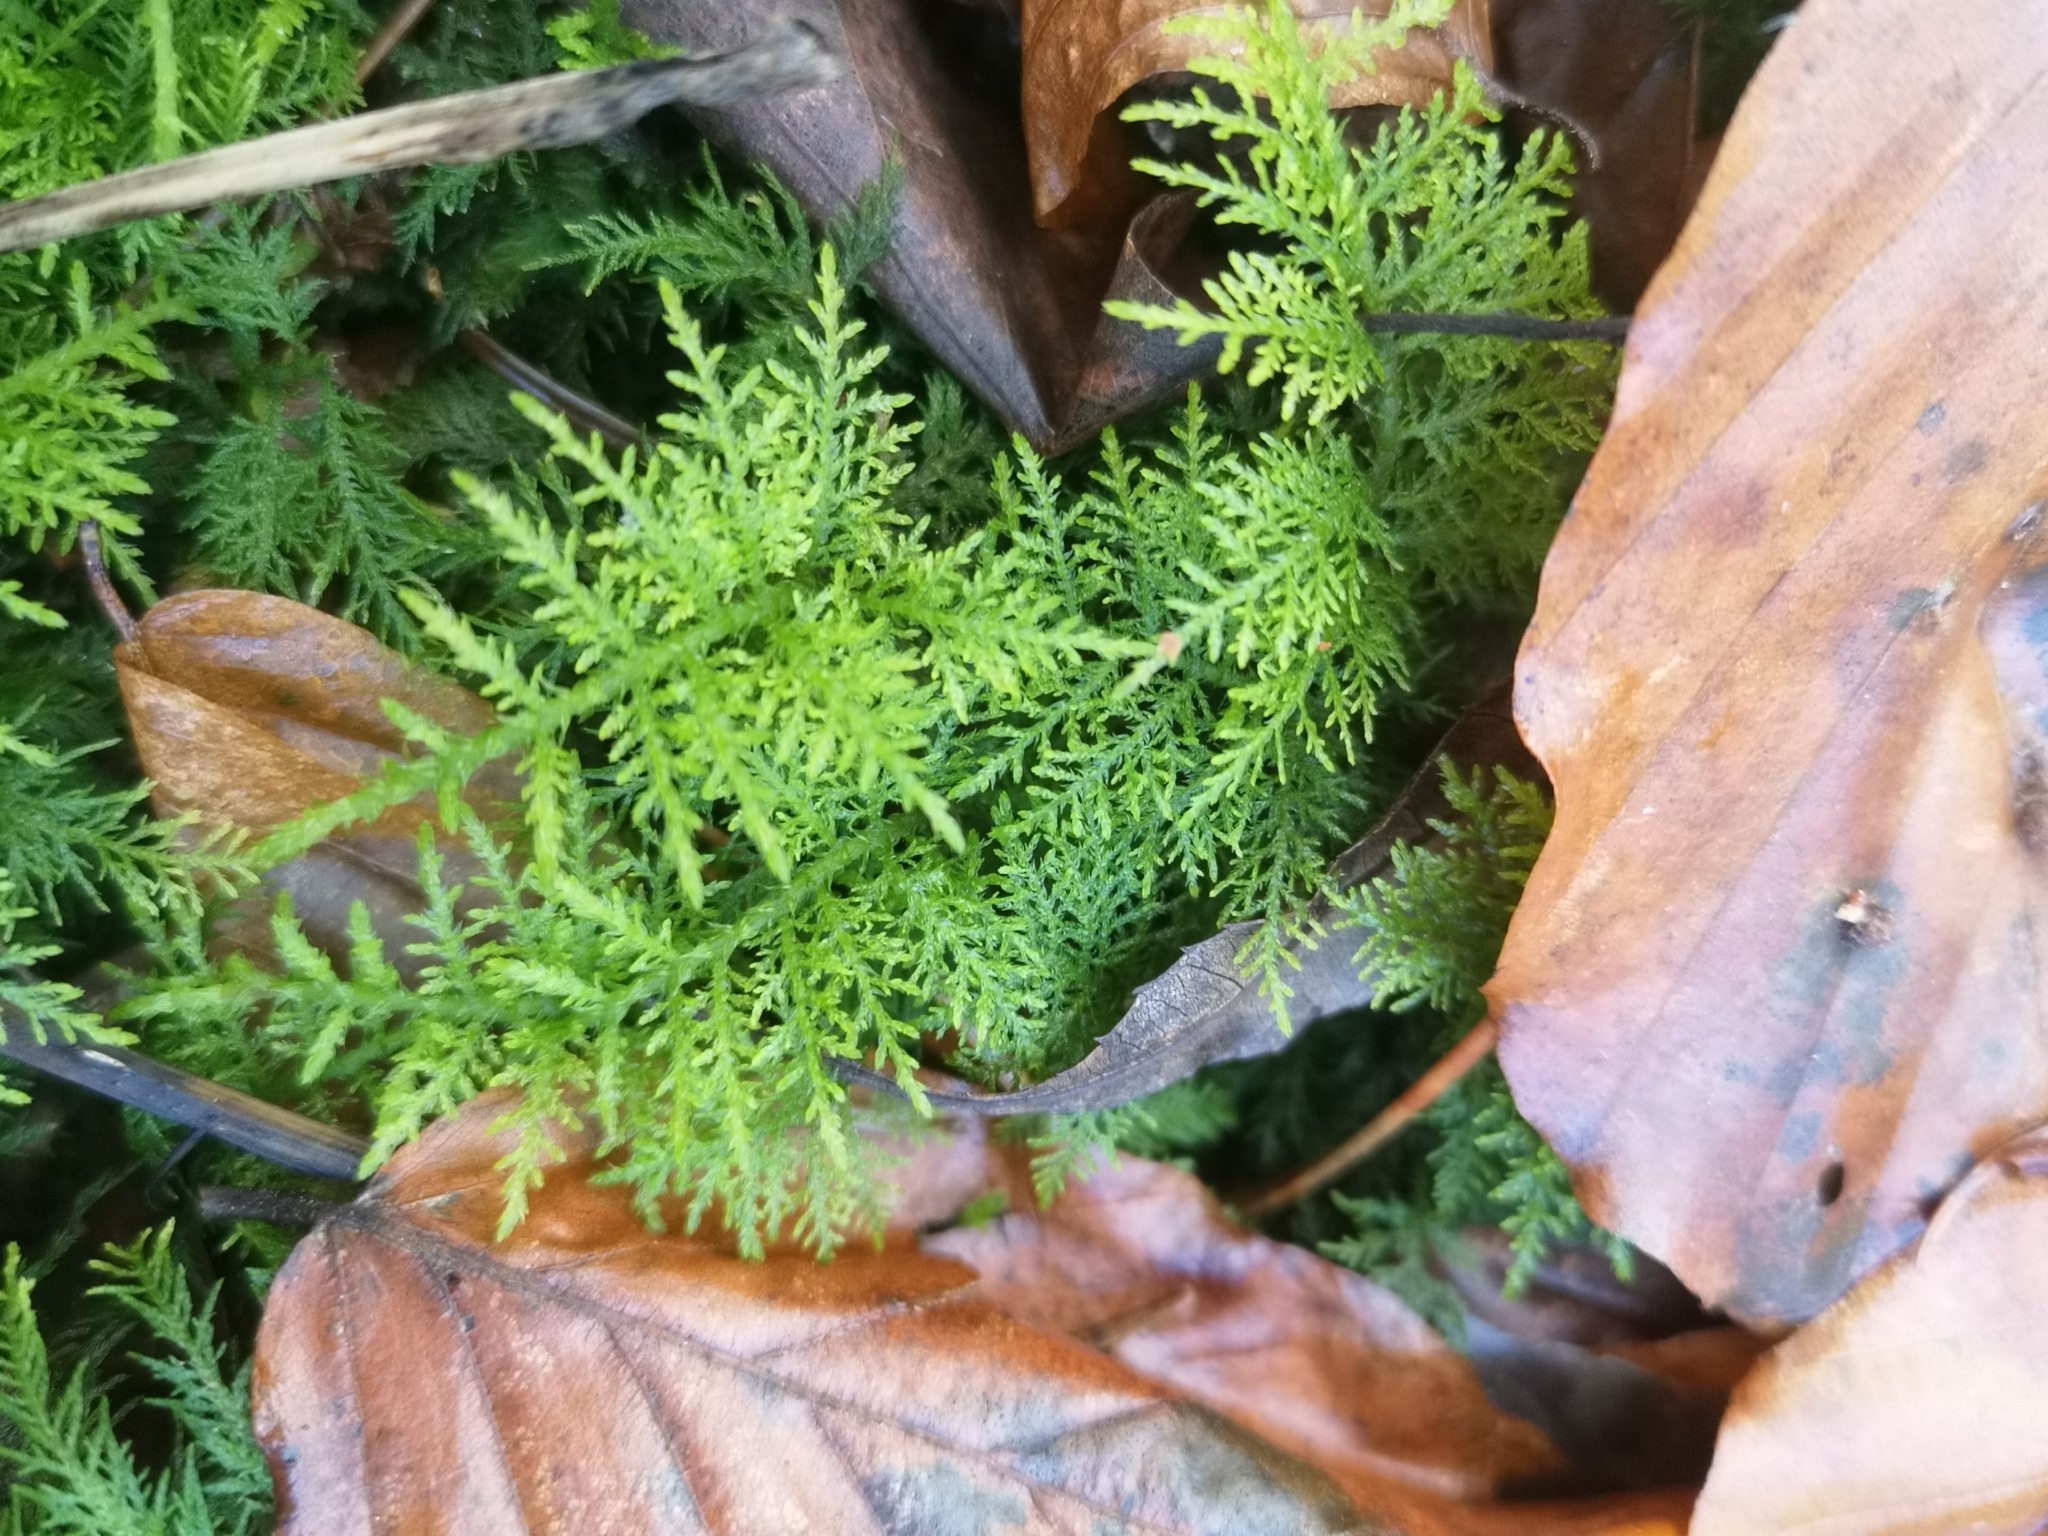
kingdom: Plantae
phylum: Bryophyta
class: Bryopsida
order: Hypnales
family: Thuidiaceae
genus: Thuidium
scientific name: Thuidium tamariscinum
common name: Common tamarisk-moss
